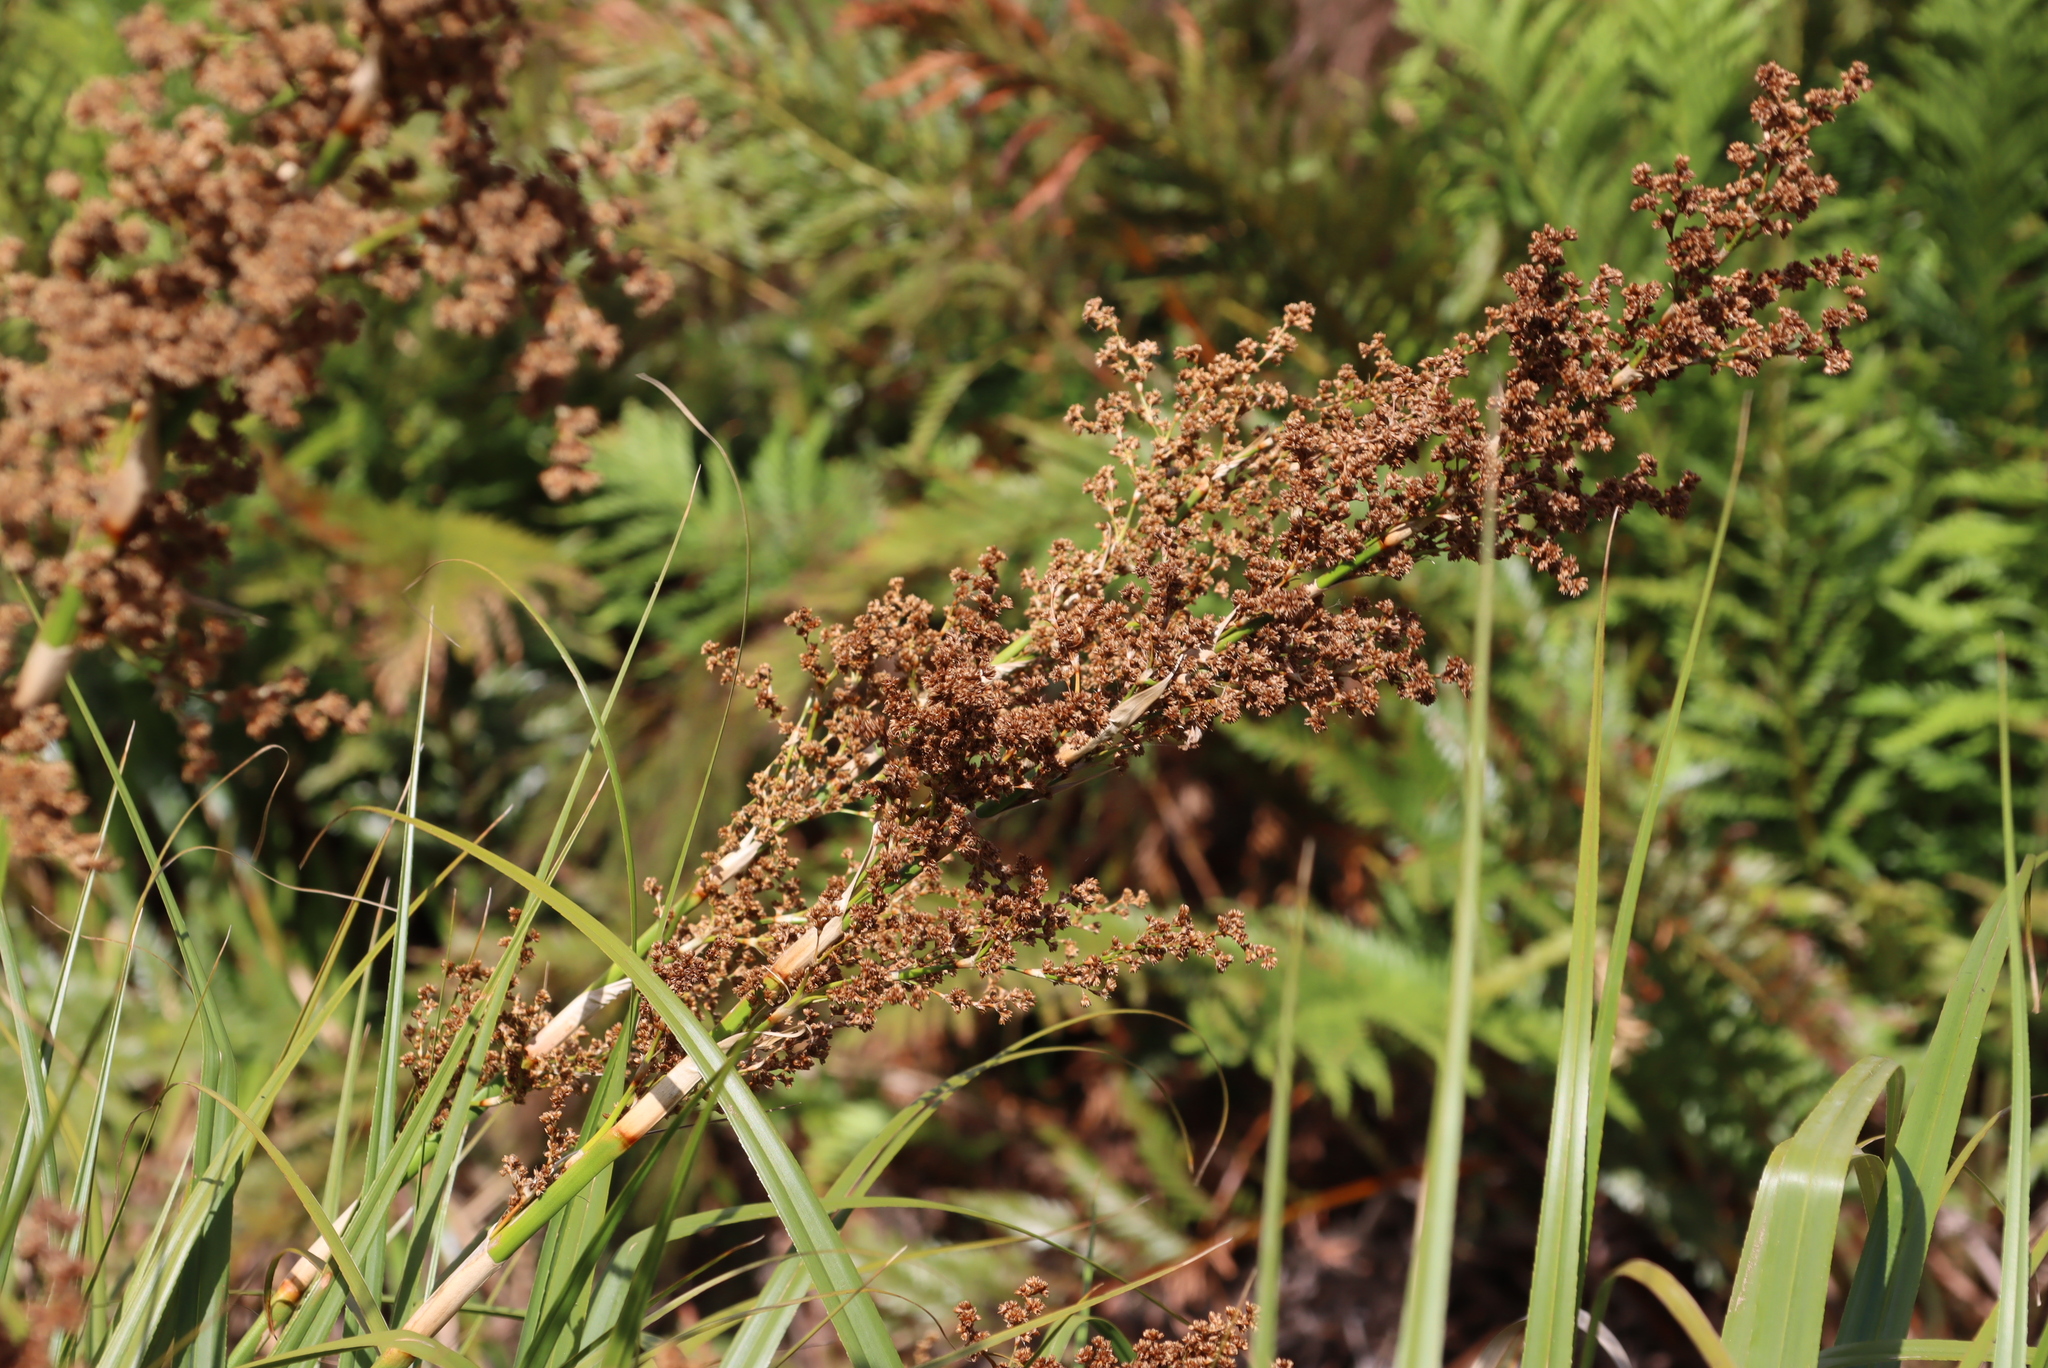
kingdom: Plantae
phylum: Tracheophyta
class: Liliopsida
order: Poales
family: Thurniaceae
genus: Prionium
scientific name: Prionium serratum
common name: Palmiet
